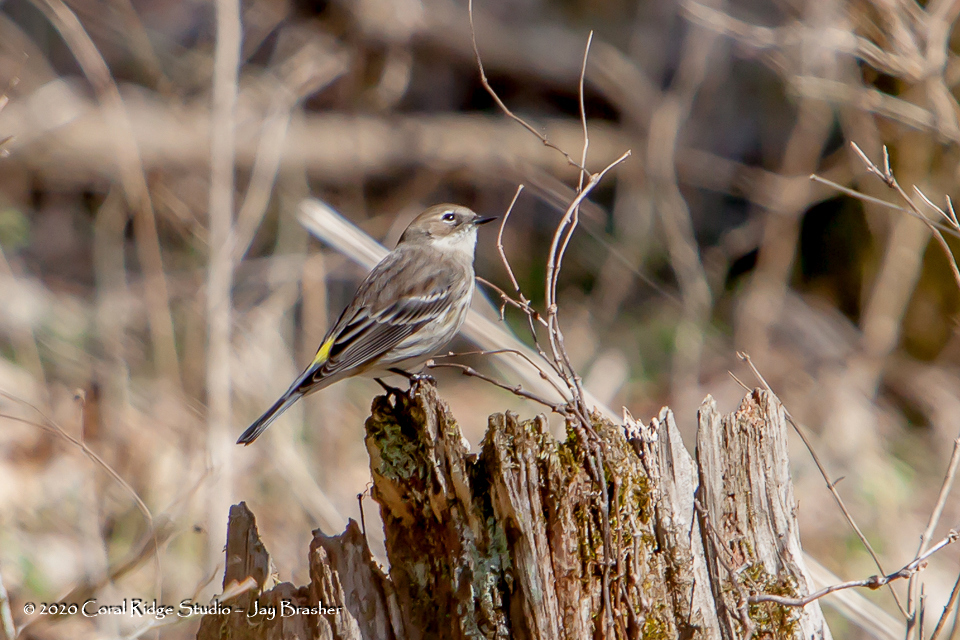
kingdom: Animalia
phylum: Chordata
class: Aves
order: Passeriformes
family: Parulidae
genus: Setophaga
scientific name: Setophaga coronata
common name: Myrtle warbler
